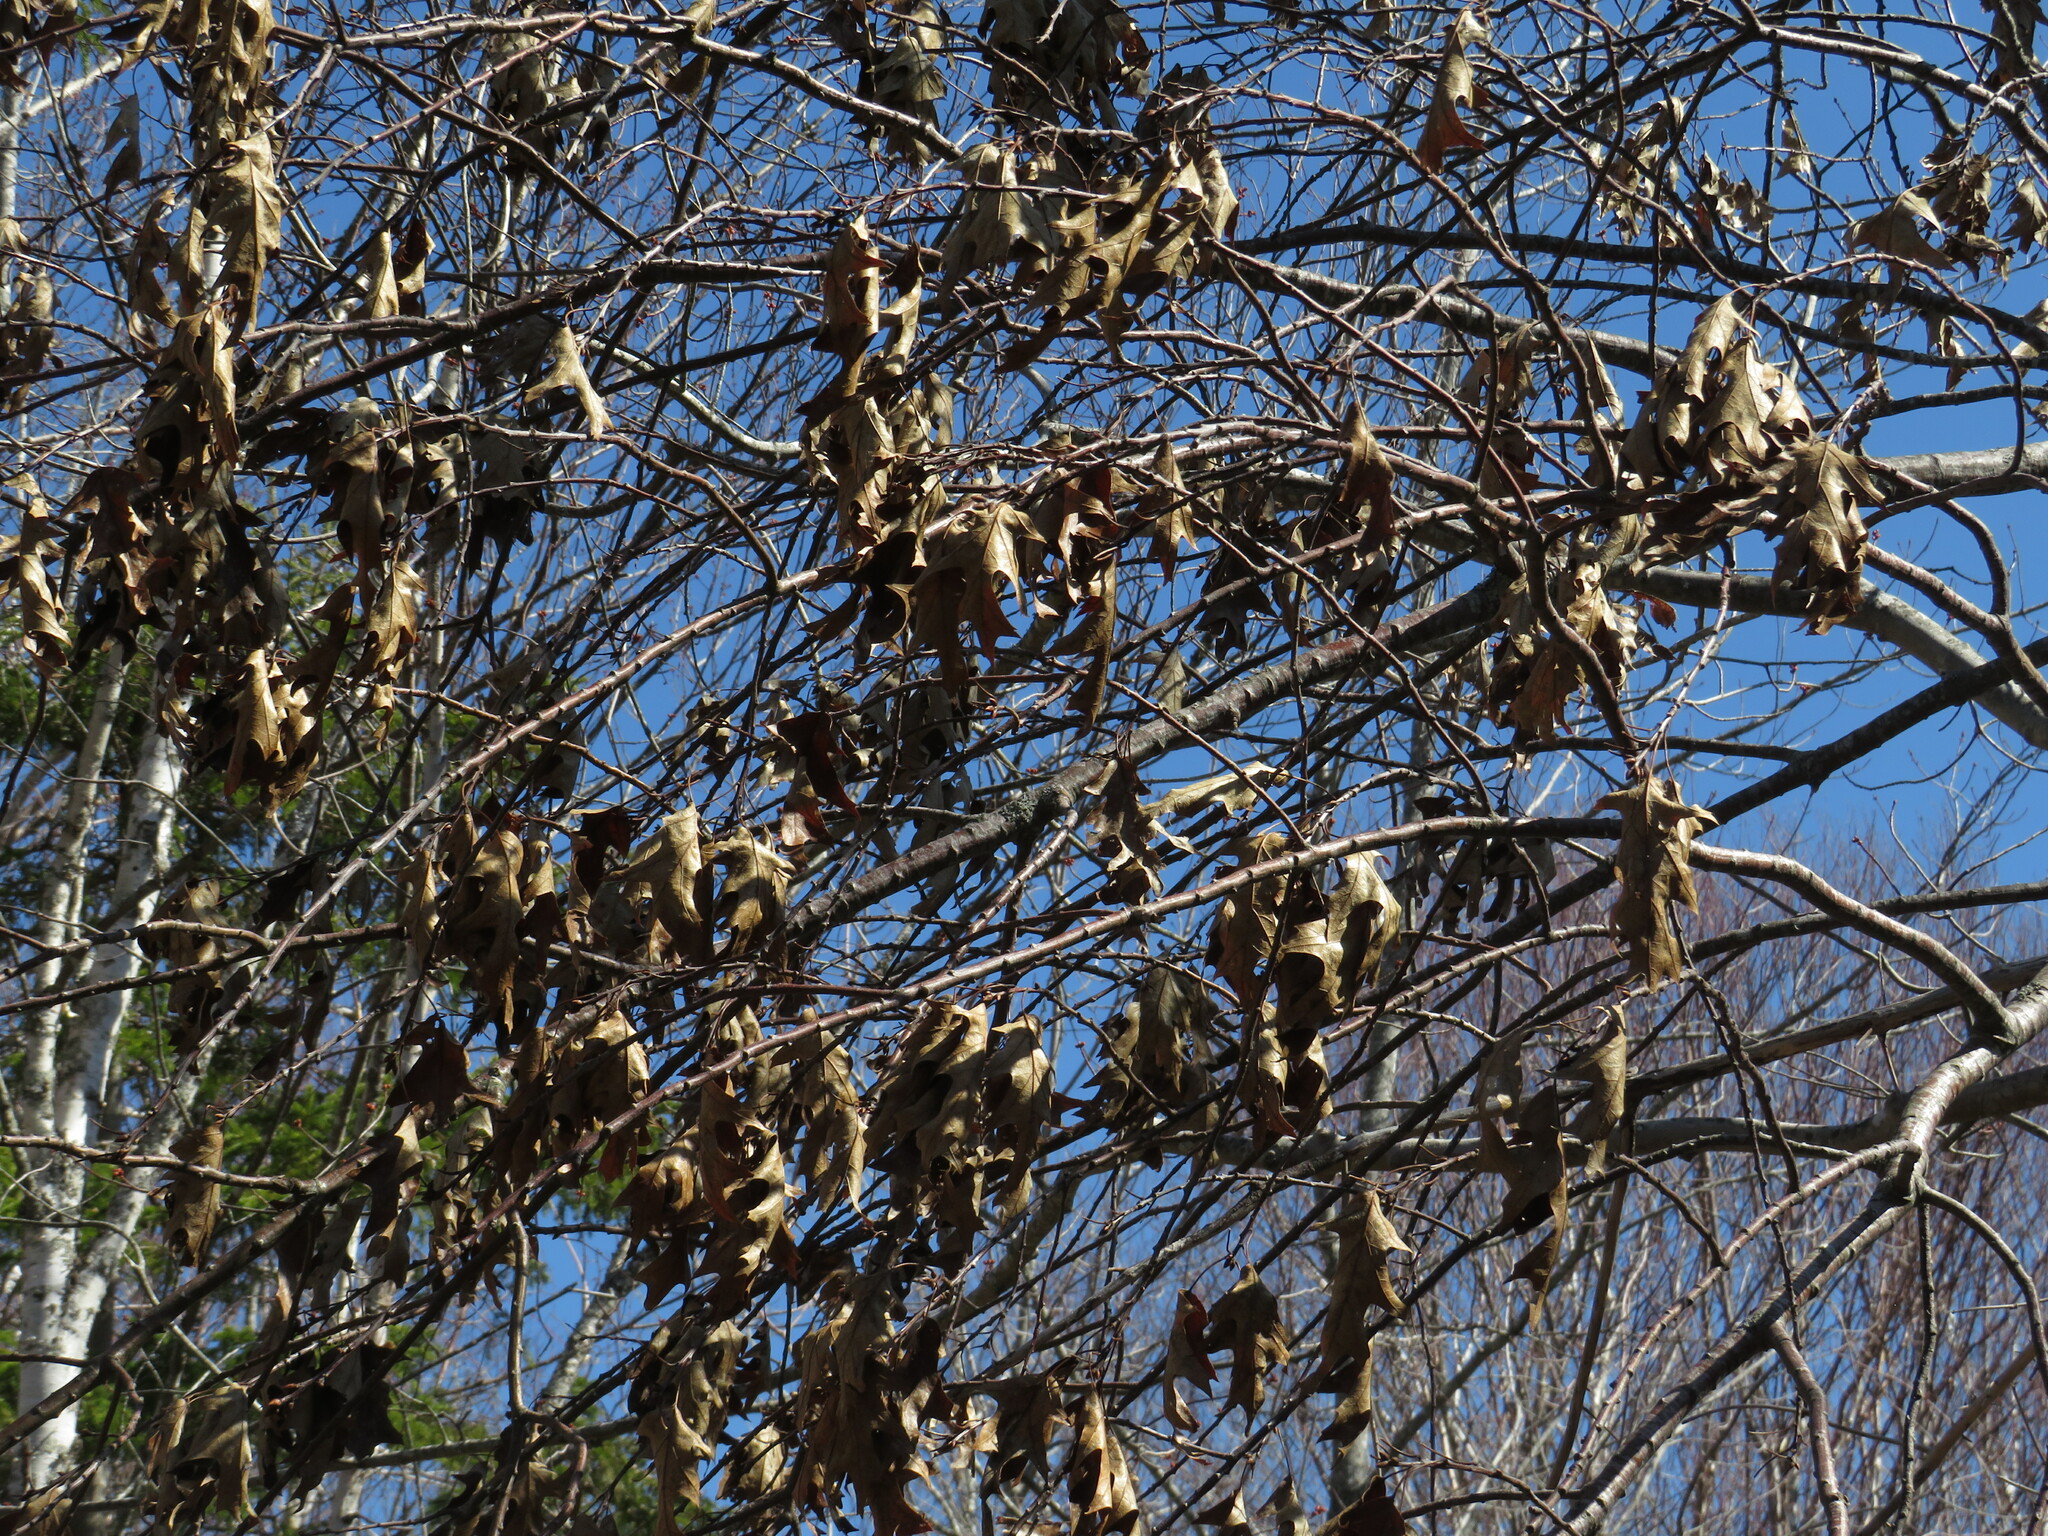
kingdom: Plantae
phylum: Tracheophyta
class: Magnoliopsida
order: Fagales
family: Fagaceae
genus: Quercus
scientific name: Quercus rubra
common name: Red oak
